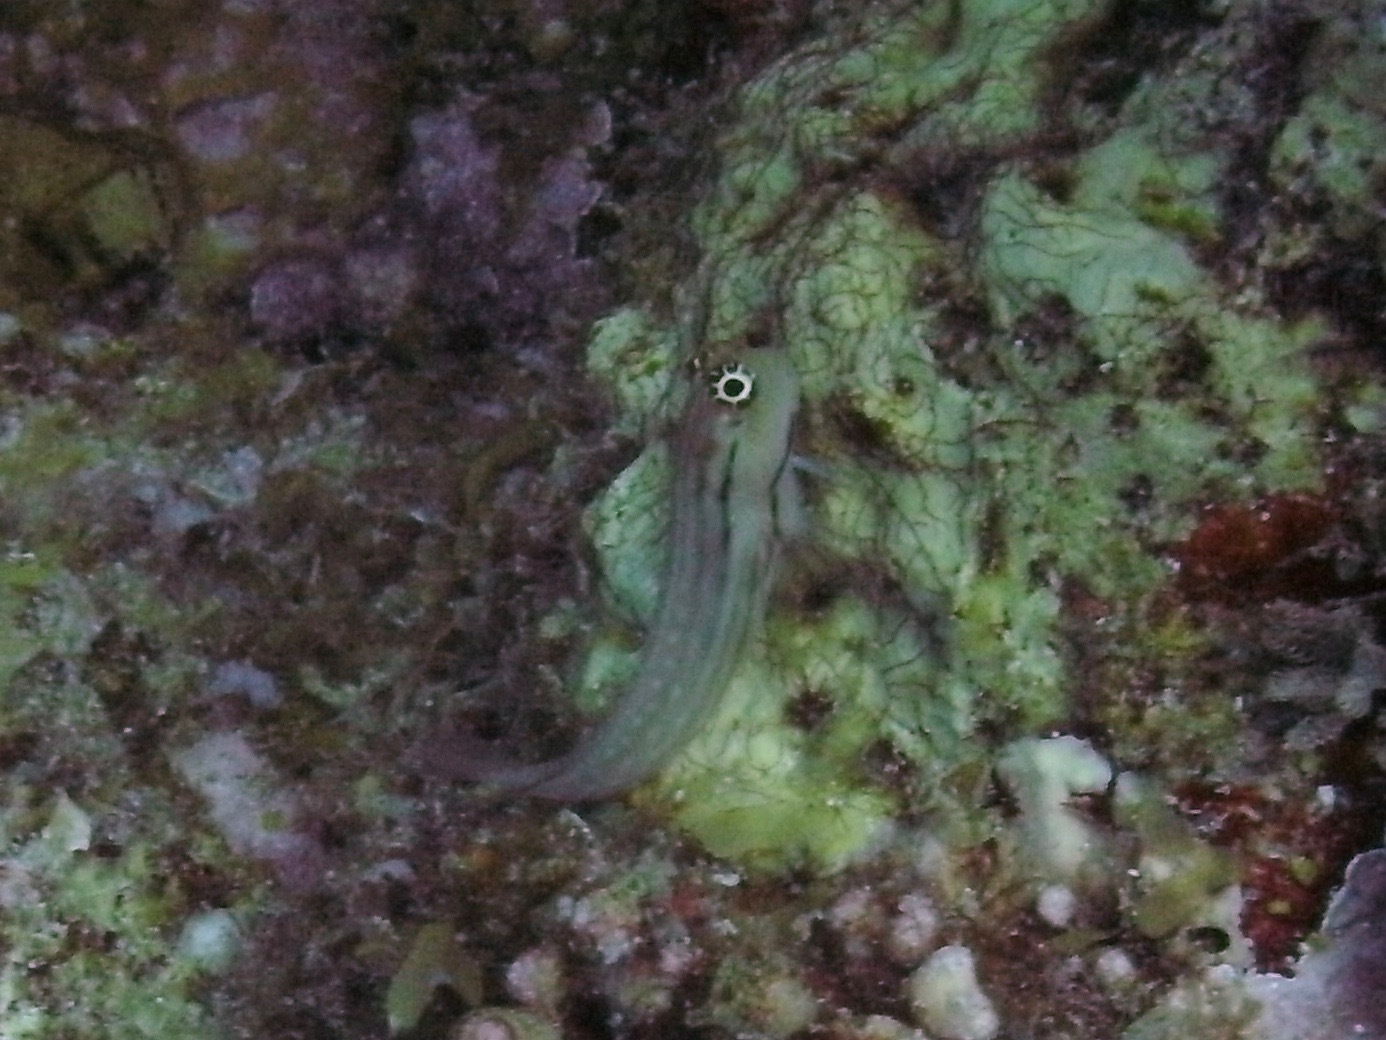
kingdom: Animalia
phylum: Chordata
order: Perciformes
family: Blenniidae
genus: Ecsenius
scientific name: Ecsenius nalolo
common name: Nalolo
